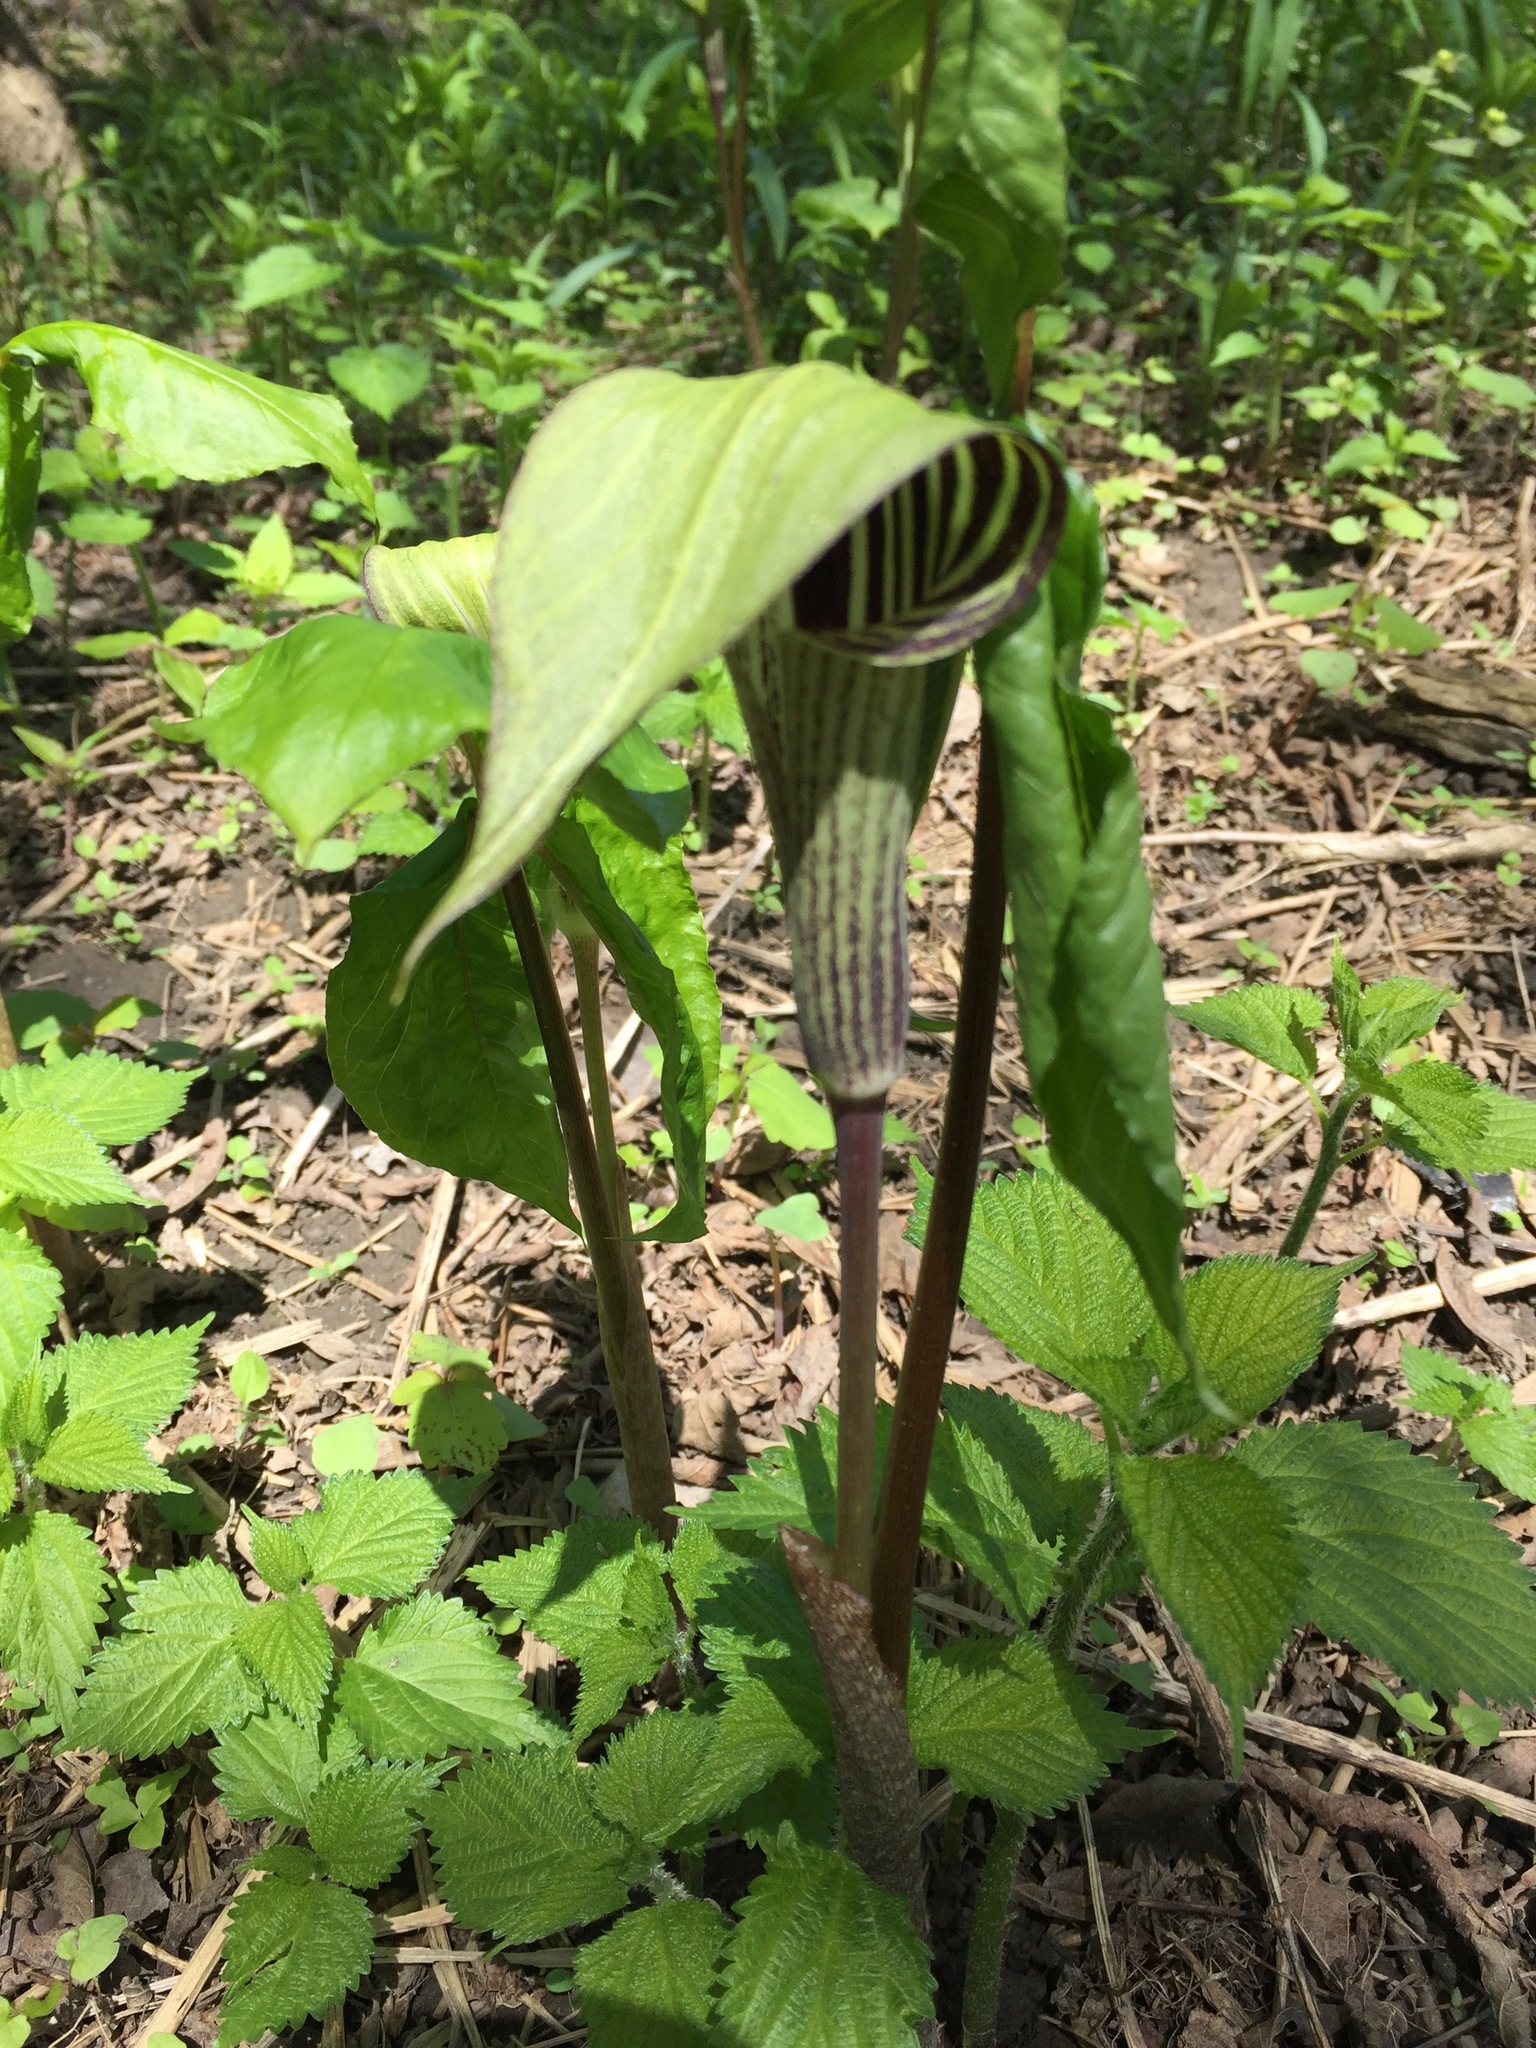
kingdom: Plantae
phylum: Tracheophyta
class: Liliopsida
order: Alismatales
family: Araceae
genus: Arisaema
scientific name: Arisaema triphyllum
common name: Jack-in-the-pulpit
